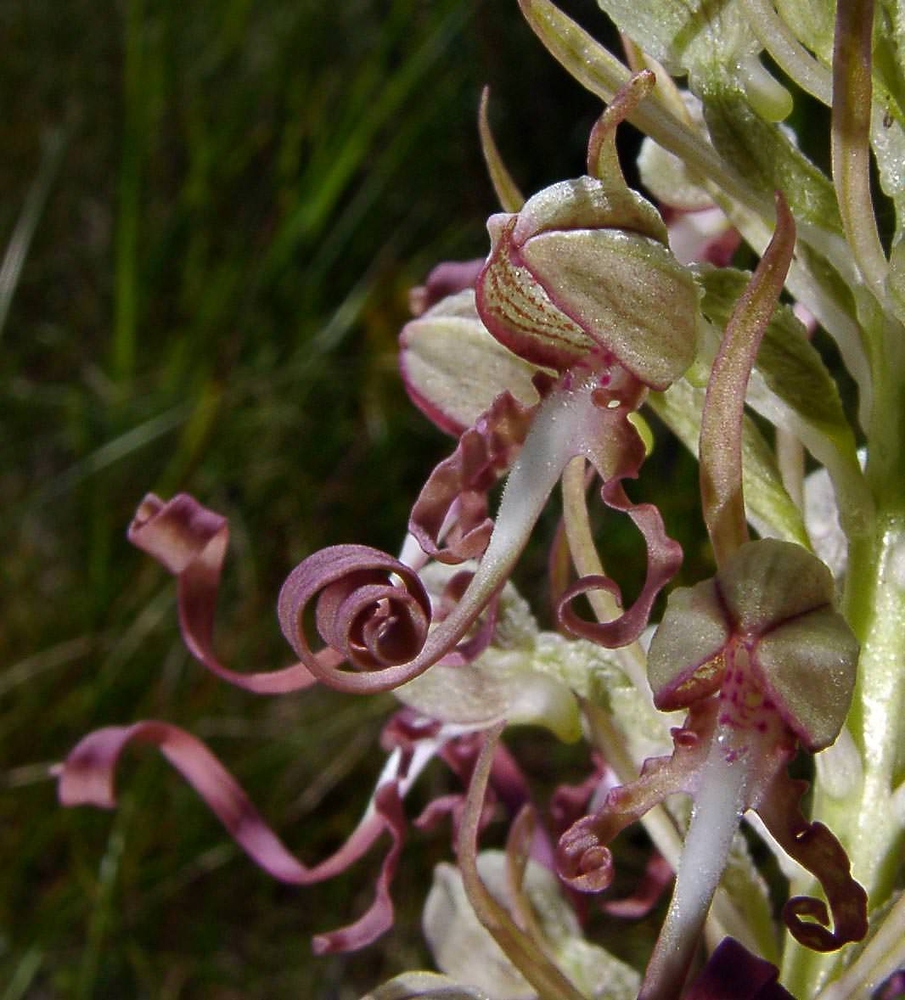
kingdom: Plantae
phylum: Tracheophyta
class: Liliopsida
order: Asparagales
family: Orchidaceae
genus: Himantoglossum
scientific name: Himantoglossum hircinum
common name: Lizard orchid
